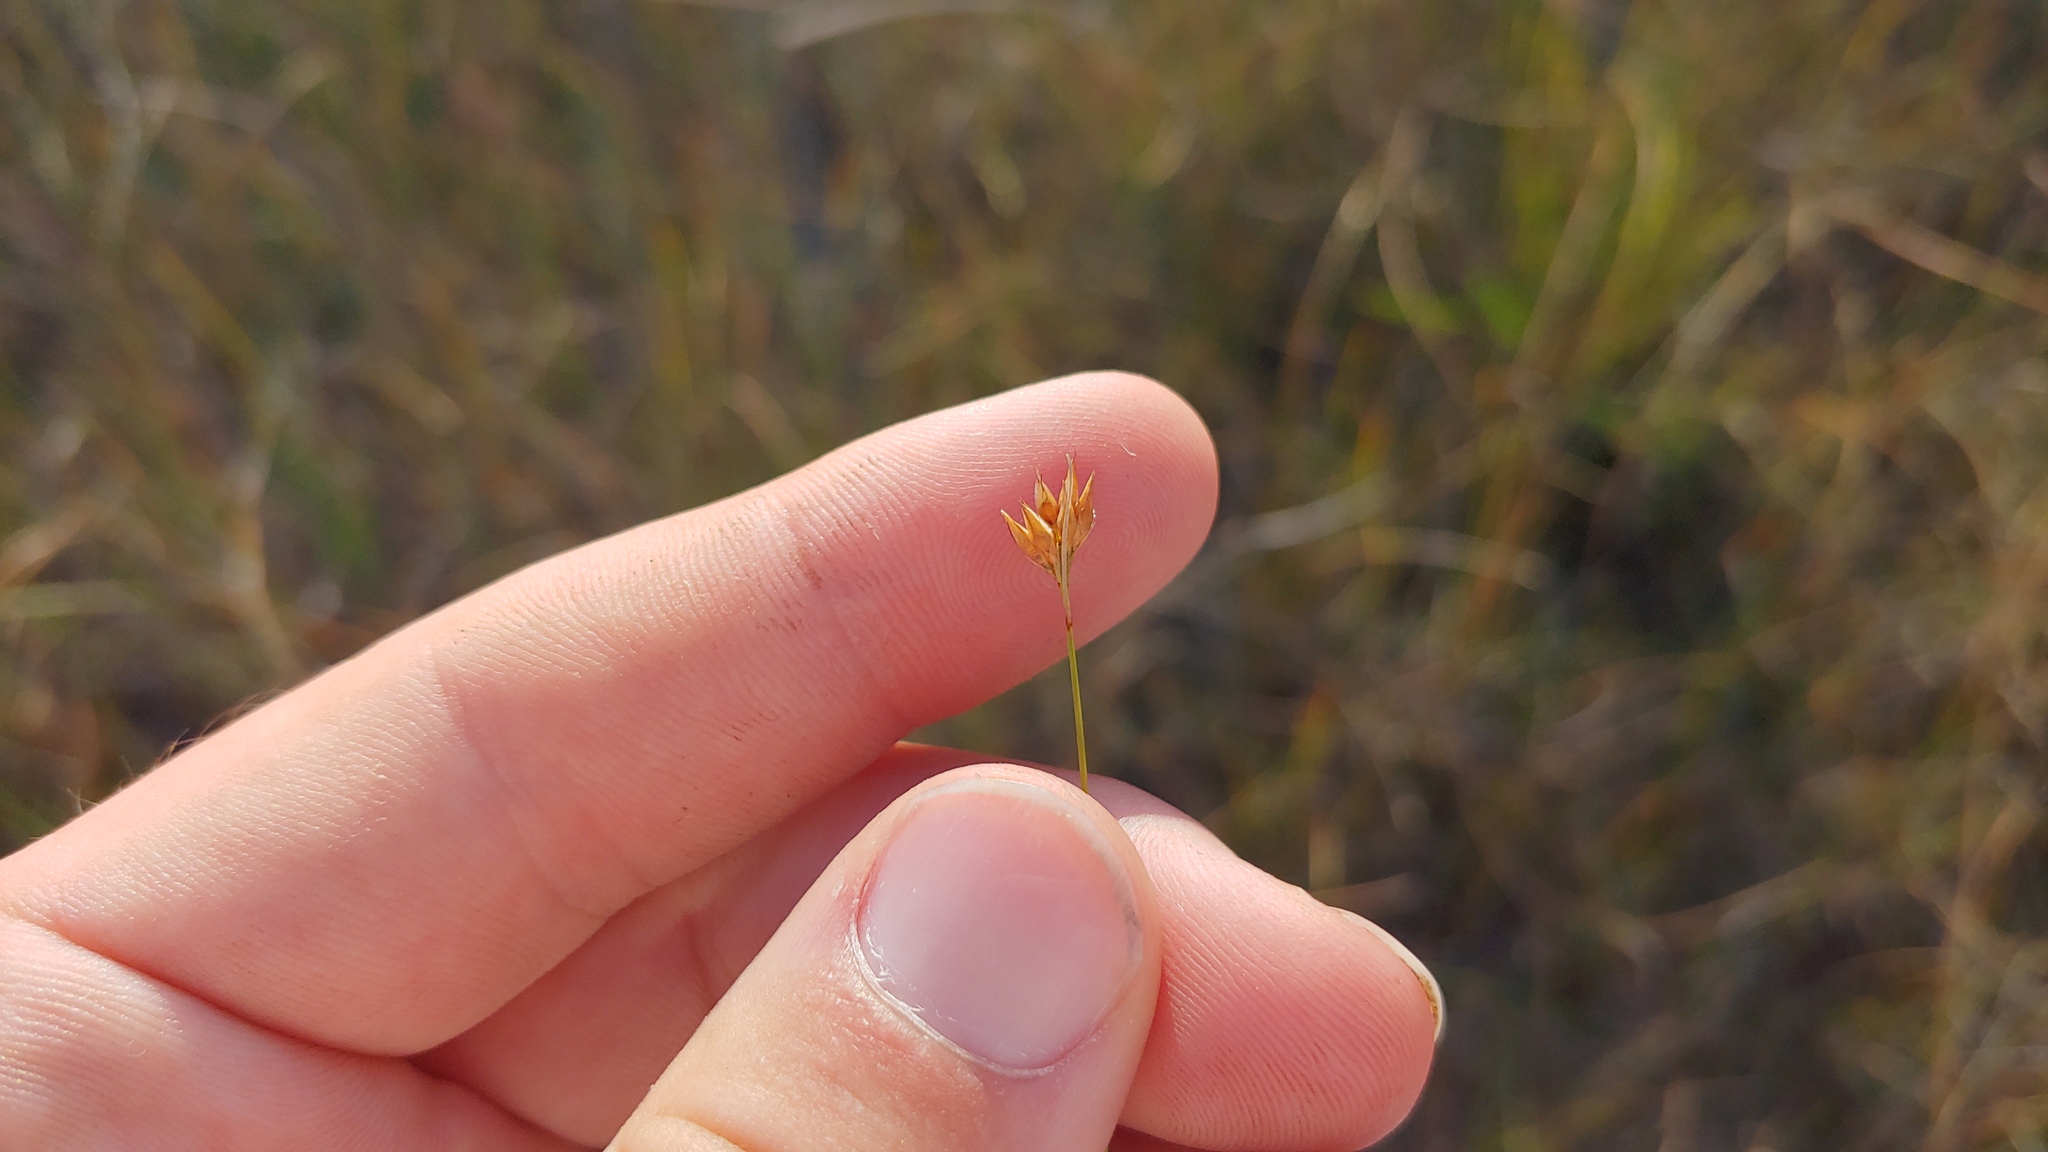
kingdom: Plantae
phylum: Tracheophyta
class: Liliopsida
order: Poales
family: Cyperaceae
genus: Rhynchospora
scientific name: Rhynchospora alba
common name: White beak-sedge
